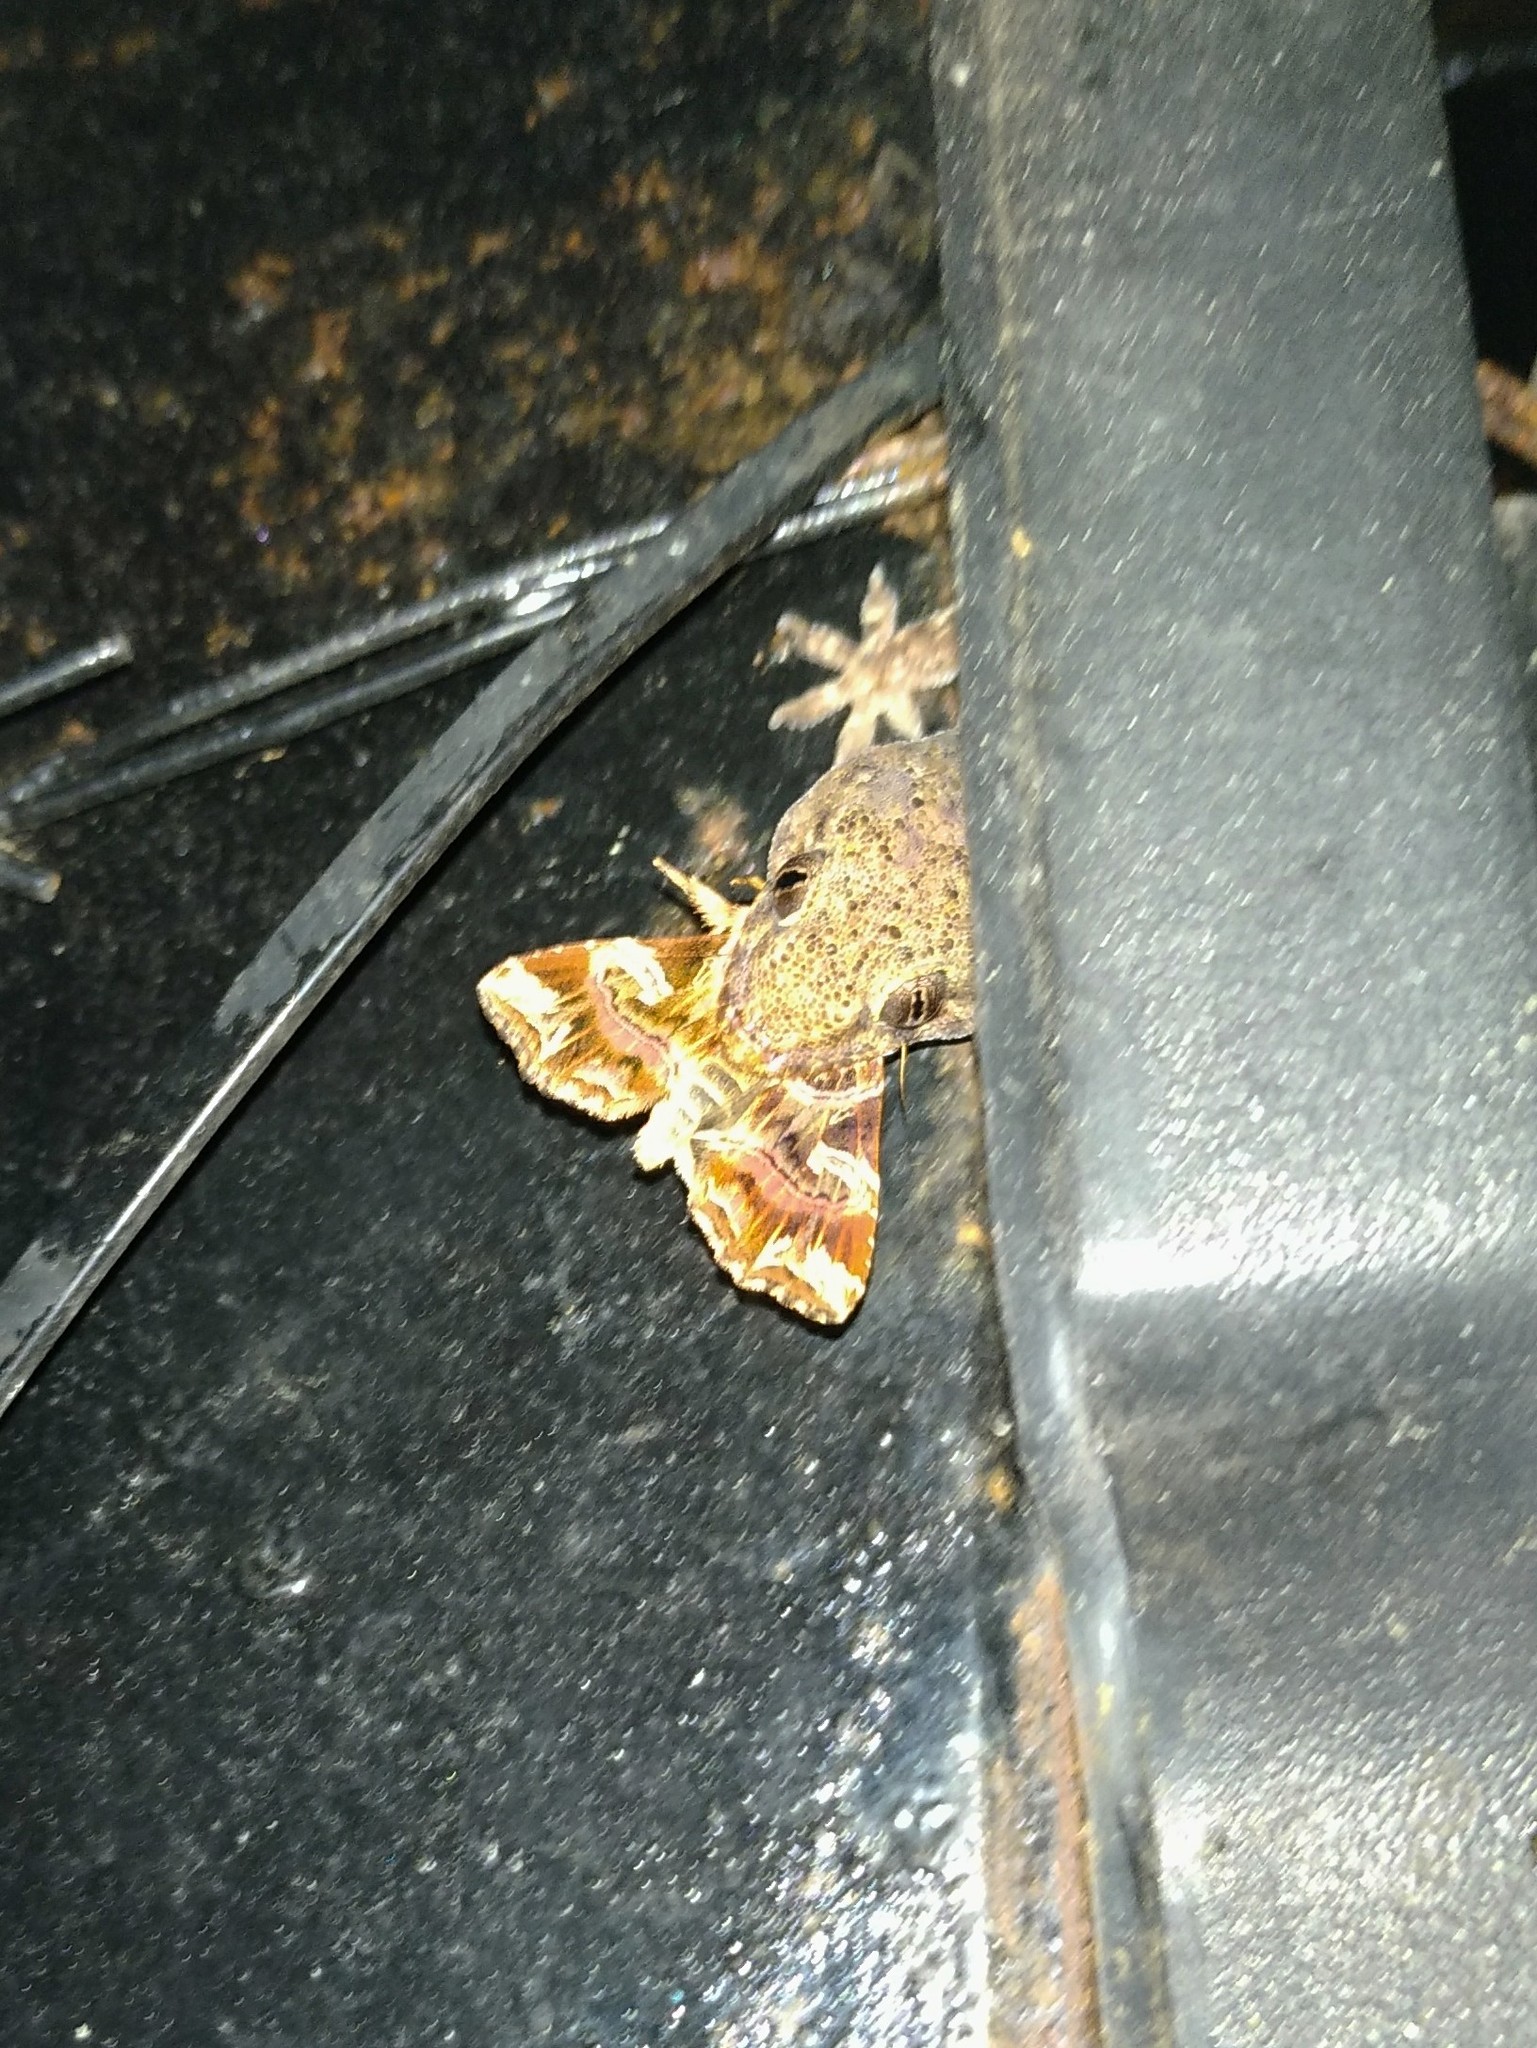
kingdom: Animalia
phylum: Arthropoda
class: Insecta
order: Lepidoptera
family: Noctuidae
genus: Callopistria
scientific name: Callopistria juventina
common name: Latin
